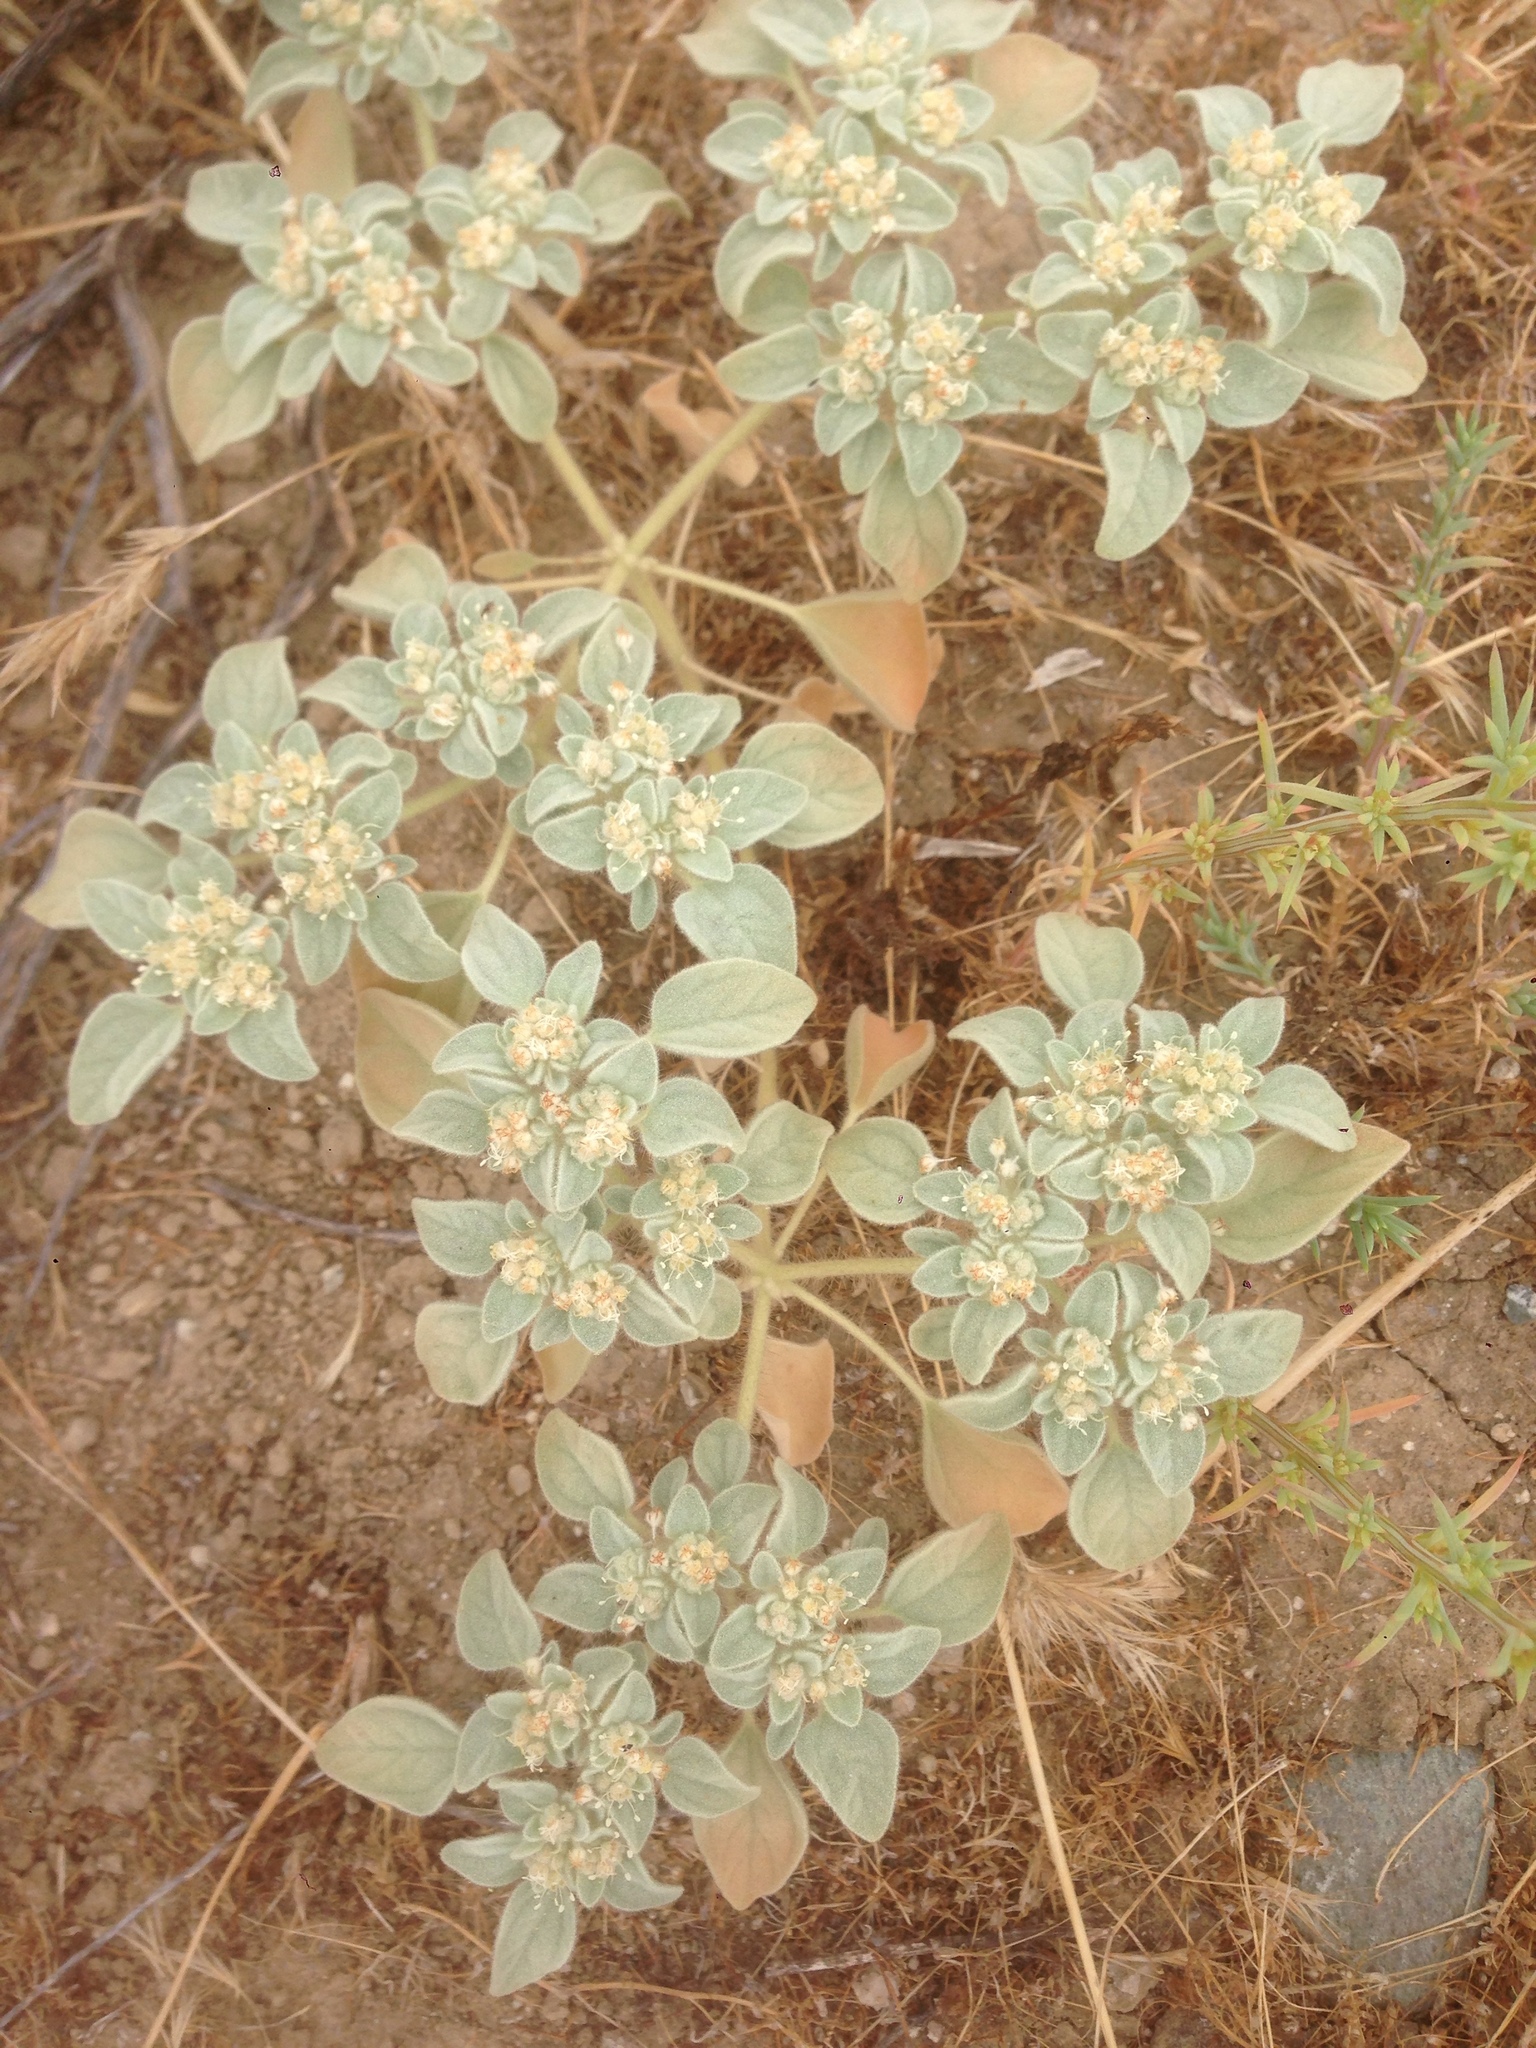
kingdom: Plantae
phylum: Tracheophyta
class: Magnoliopsida
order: Malpighiales
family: Euphorbiaceae
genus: Croton
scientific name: Croton setiger
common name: Dove weed
